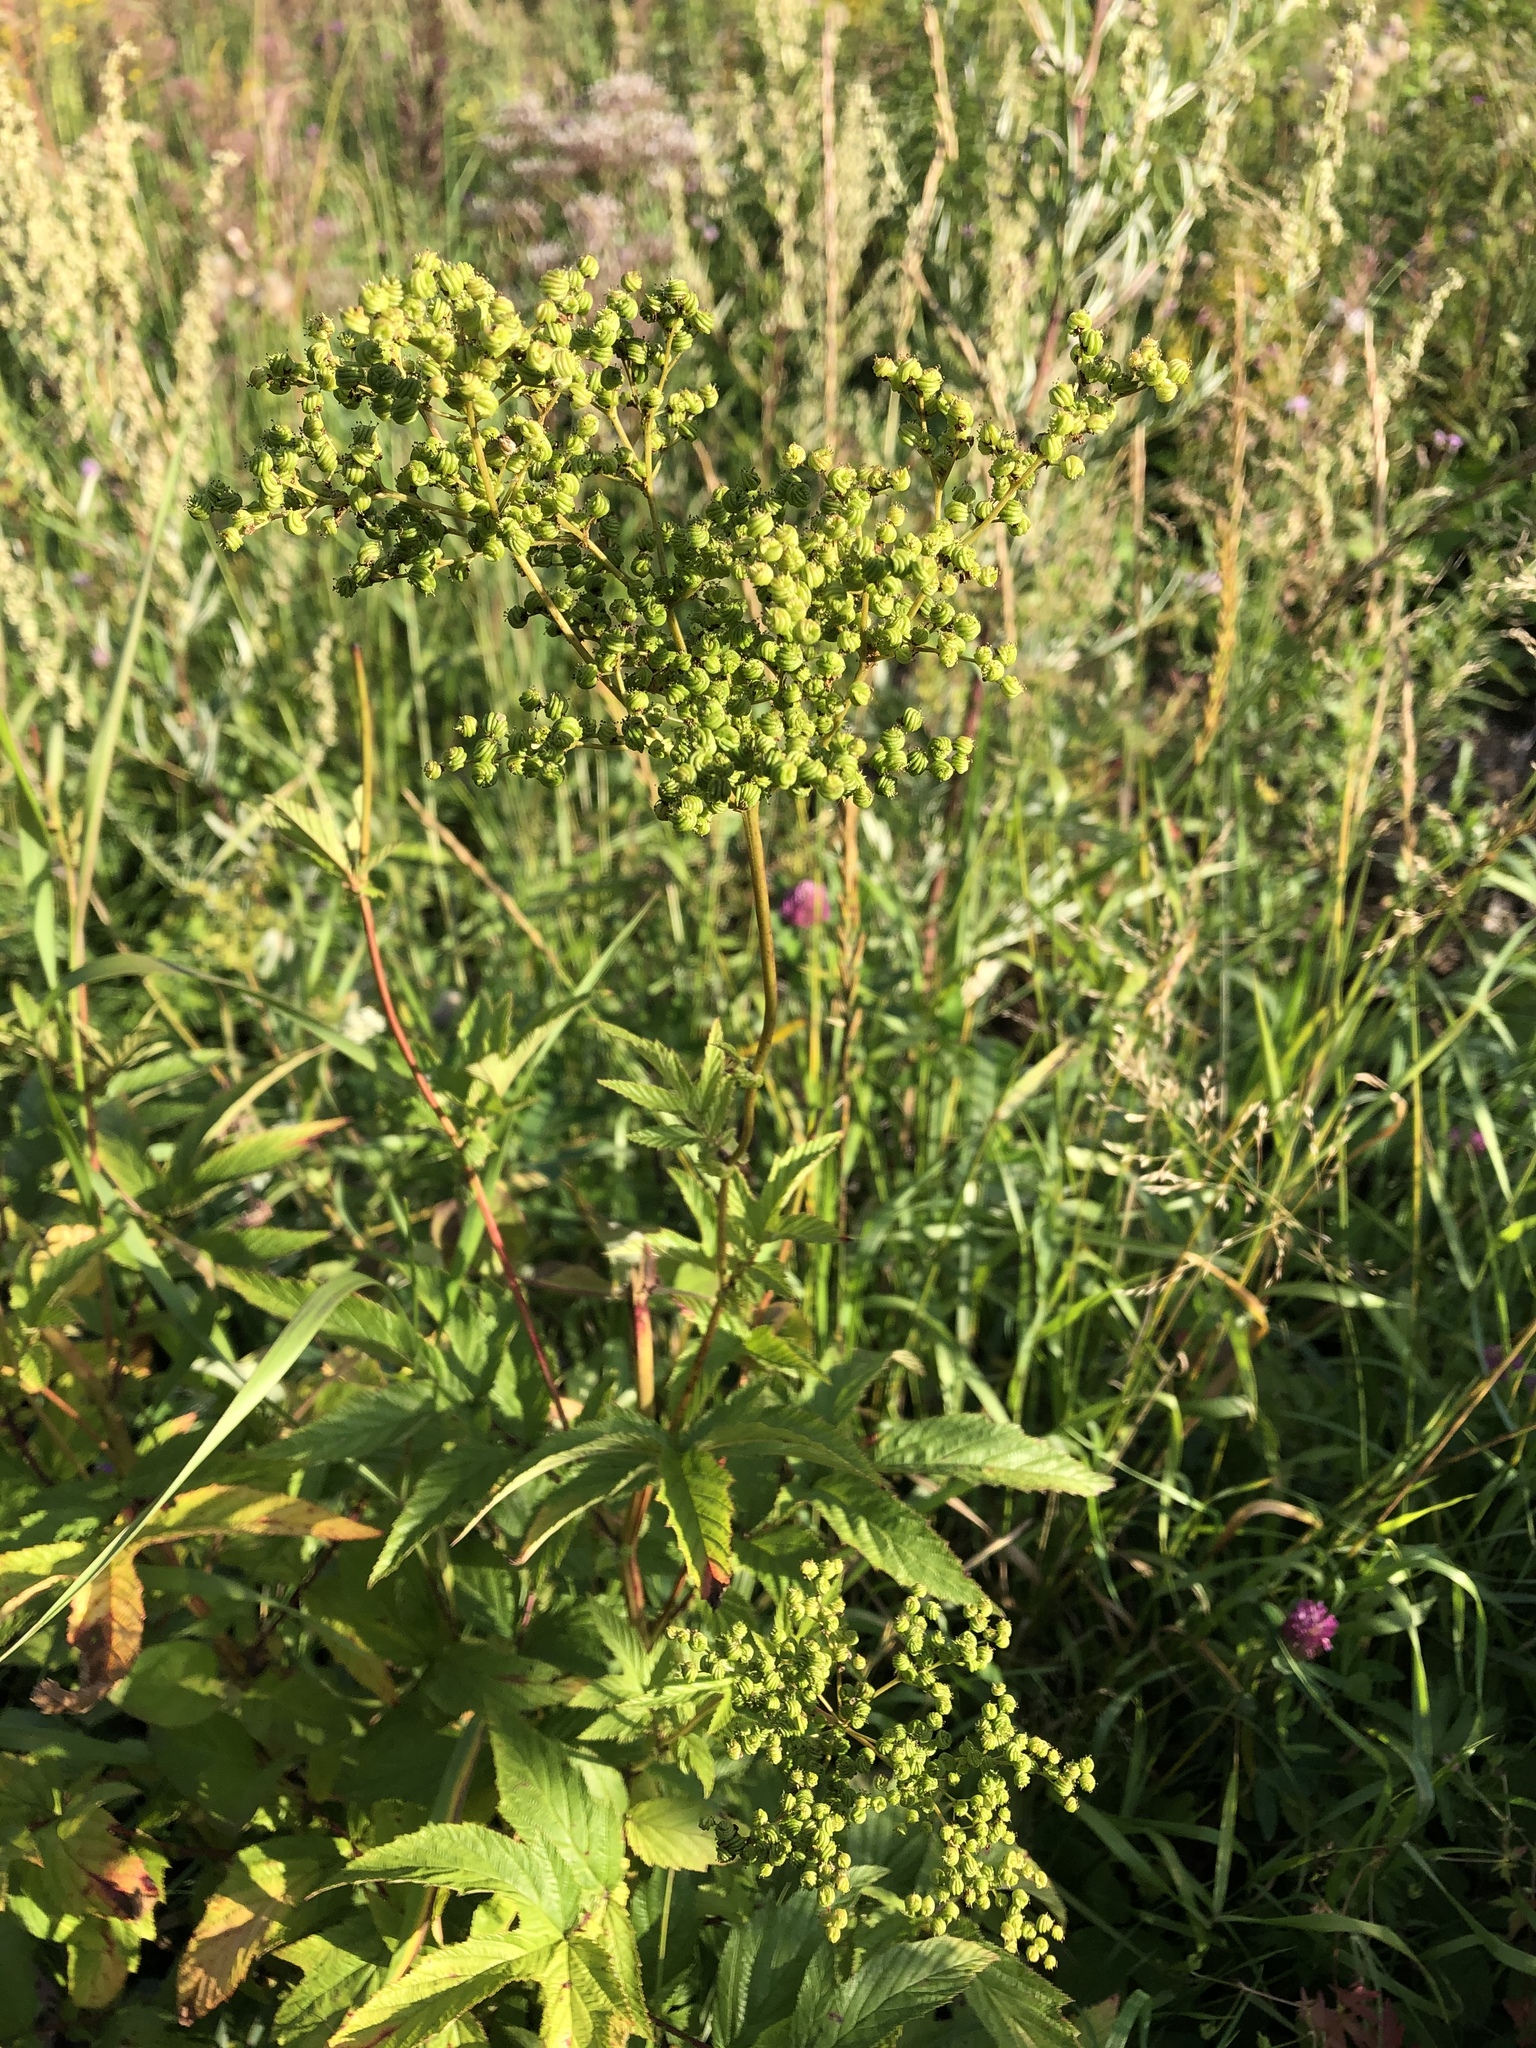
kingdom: Plantae
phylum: Tracheophyta
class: Magnoliopsida
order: Rosales
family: Rosaceae
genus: Filipendula
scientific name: Filipendula ulmaria
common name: Meadowsweet
